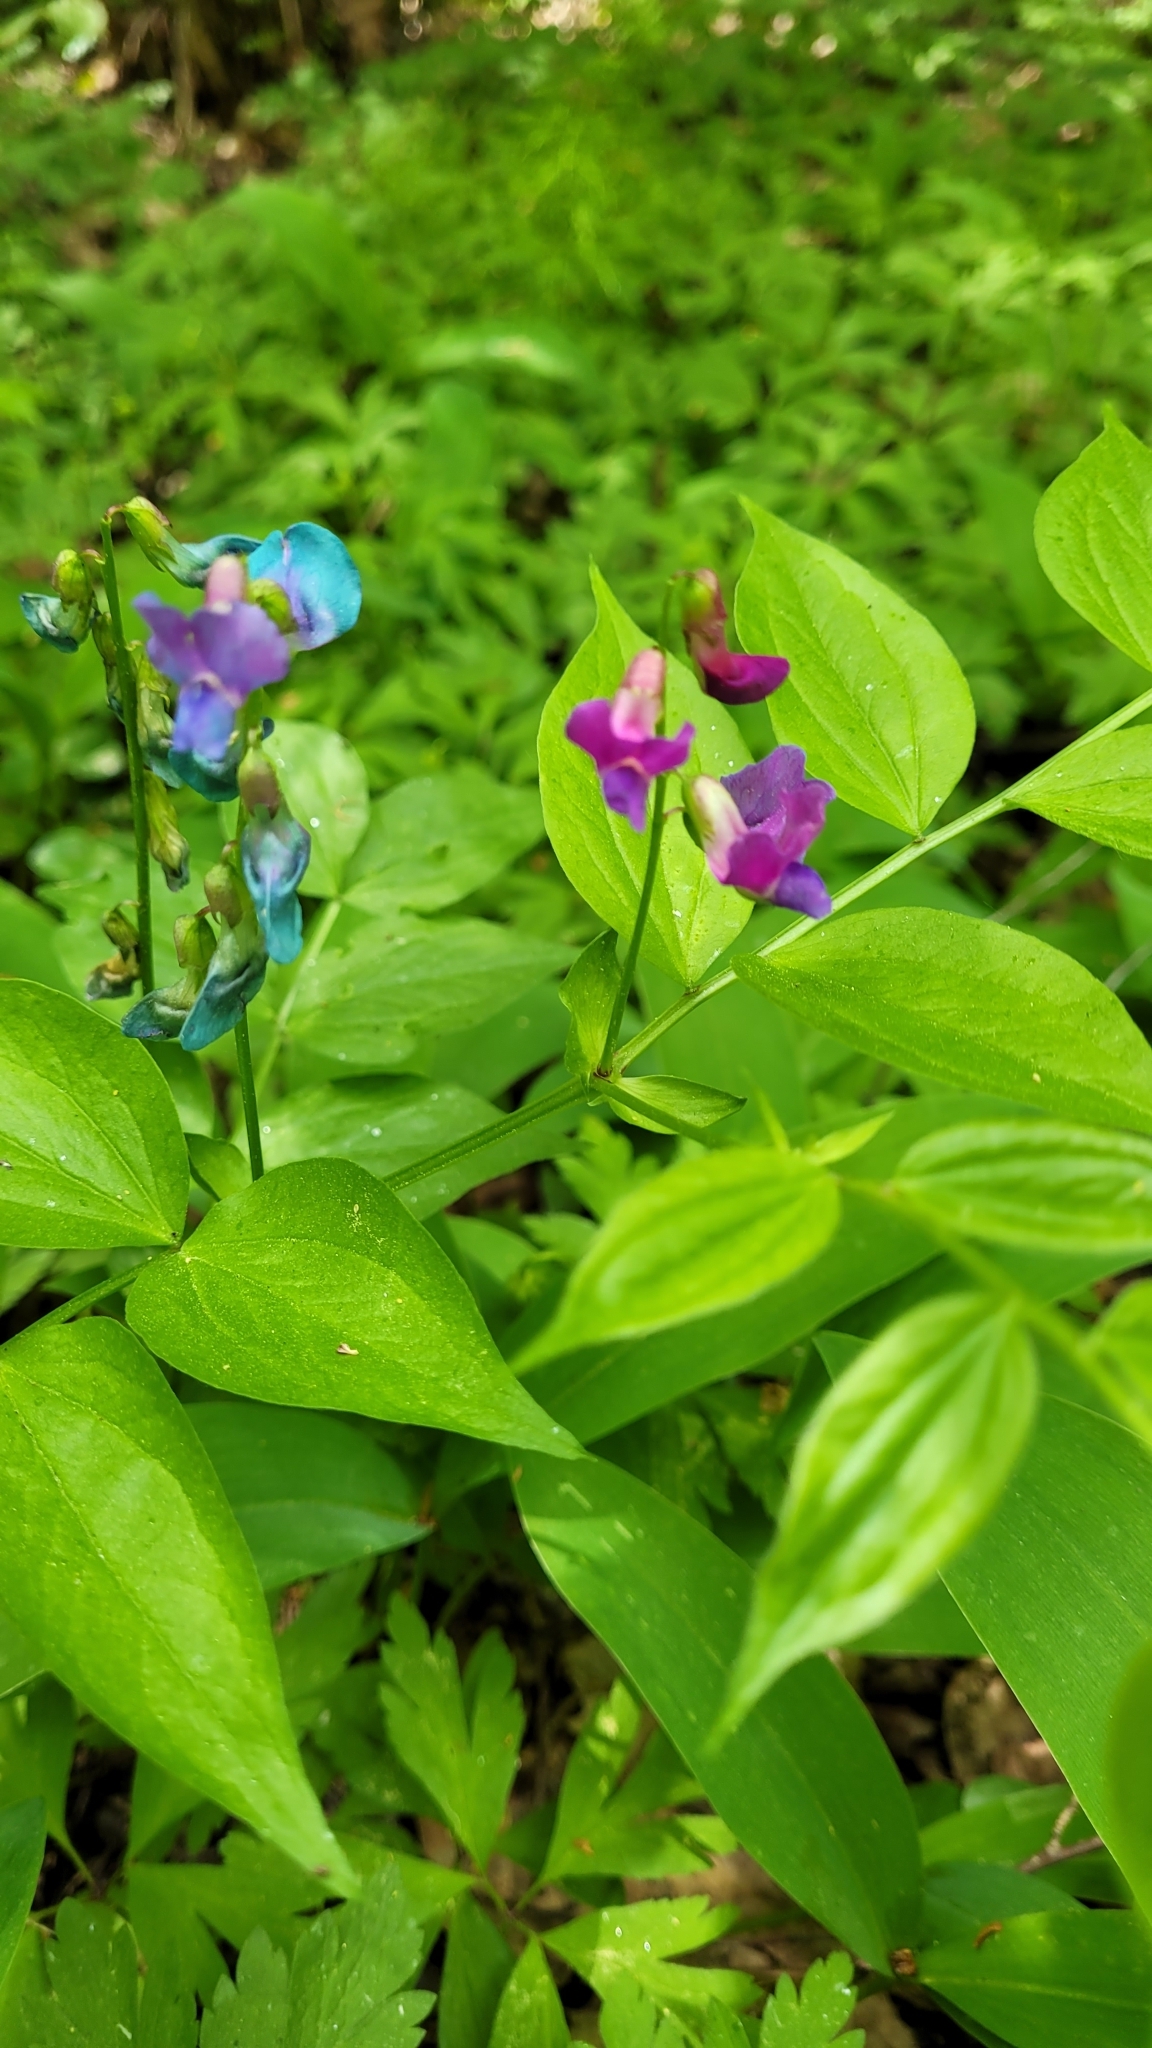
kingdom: Plantae
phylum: Tracheophyta
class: Magnoliopsida
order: Fabales
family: Fabaceae
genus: Lathyrus
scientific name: Lathyrus vernus
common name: Spring pea
